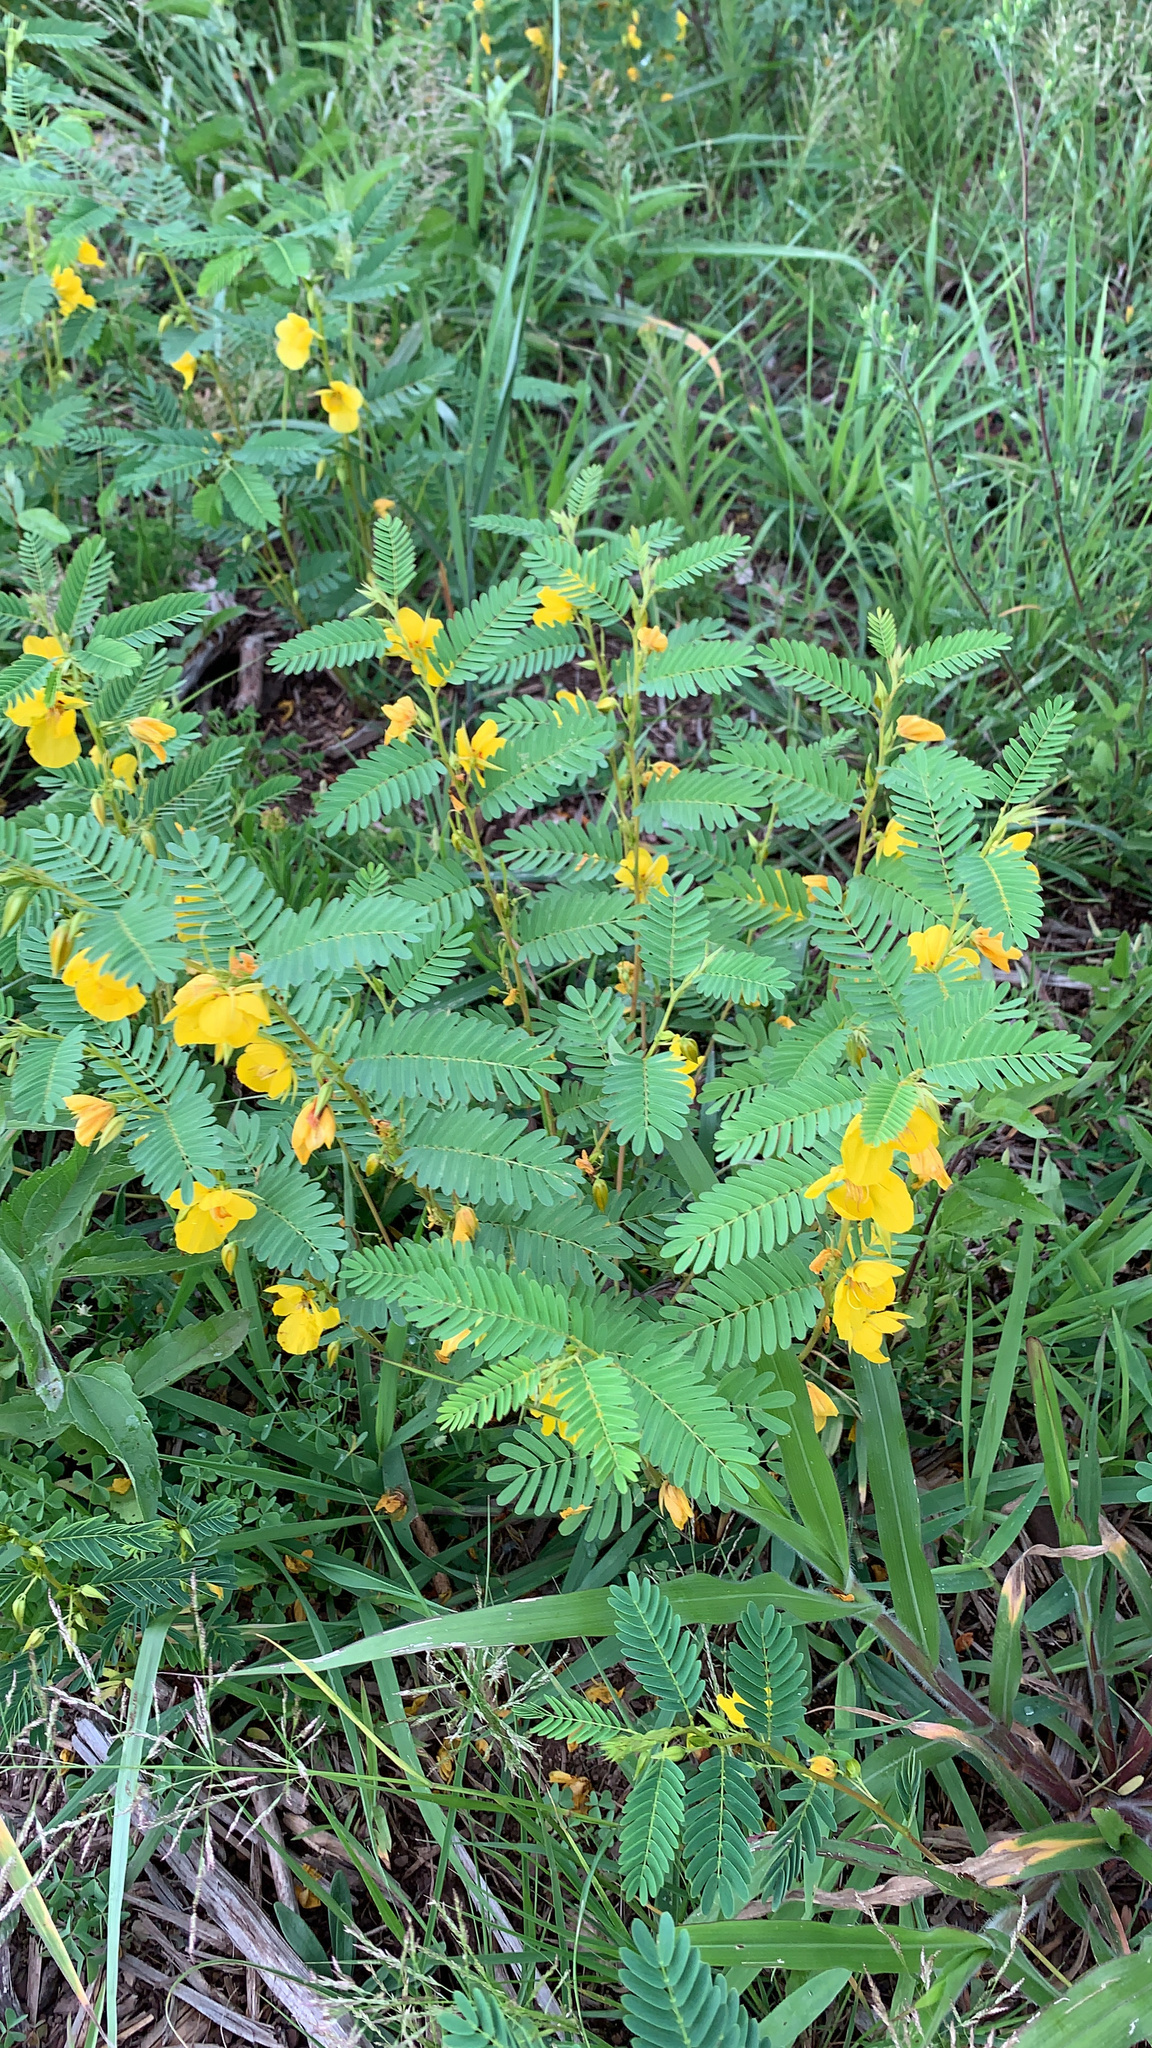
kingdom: Plantae
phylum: Tracheophyta
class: Magnoliopsida
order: Fabales
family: Fabaceae
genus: Chamaecrista
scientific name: Chamaecrista fasciculata
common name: Golden cassia
